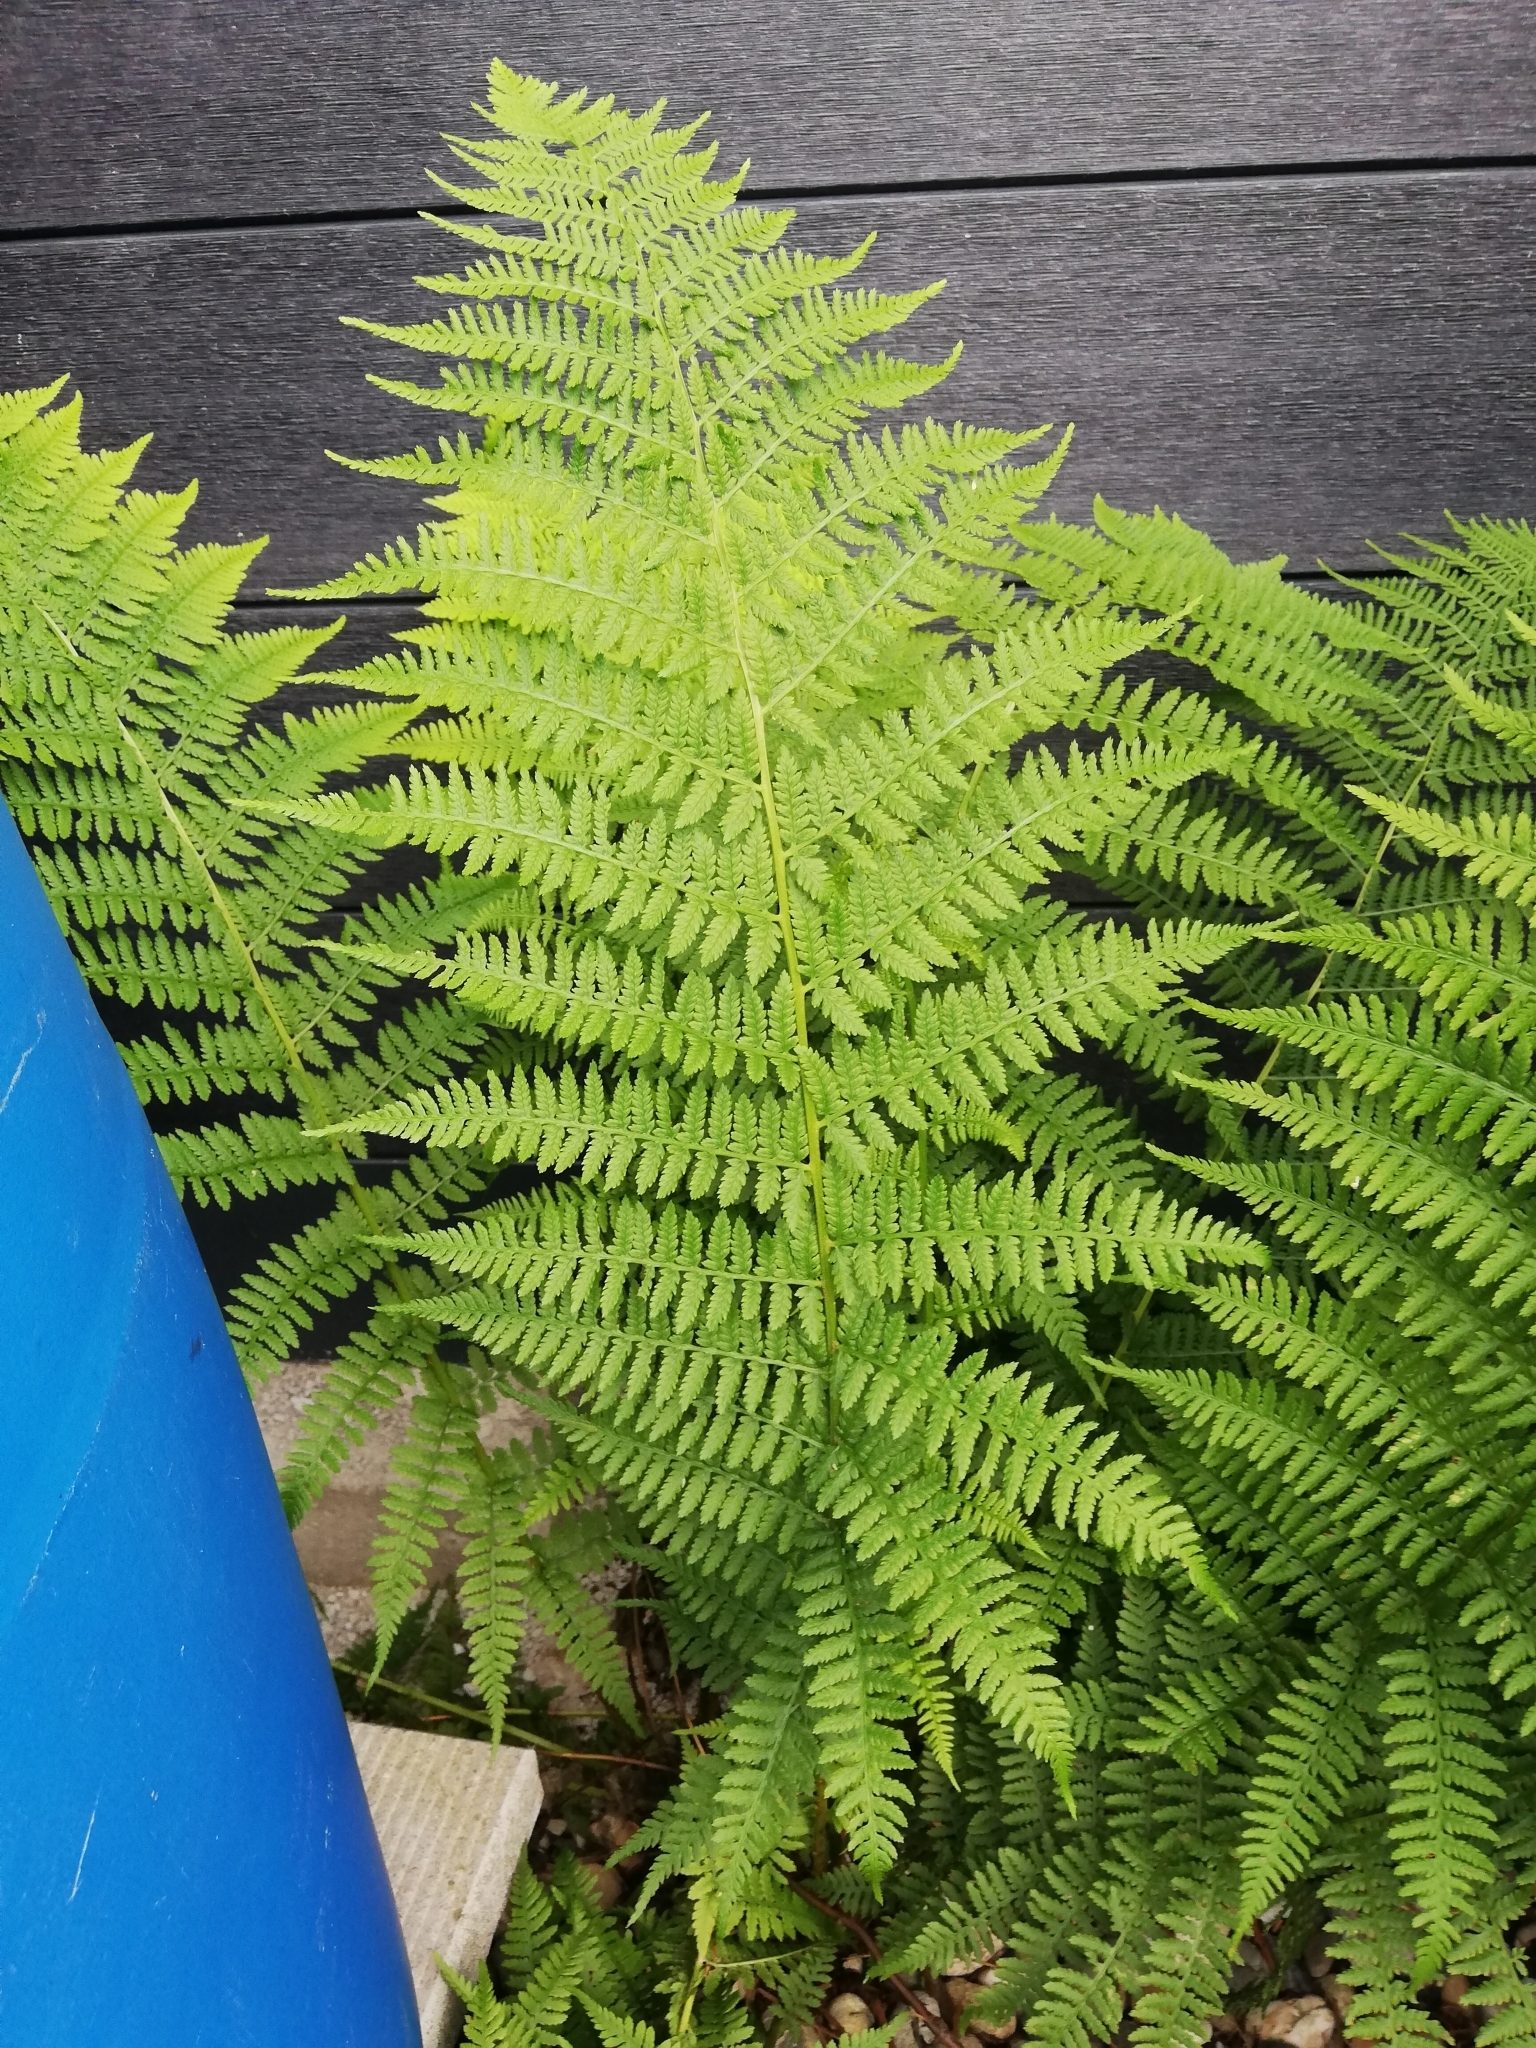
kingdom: Plantae
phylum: Tracheophyta
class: Polypodiopsida
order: Polypodiales
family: Athyriaceae
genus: Athyrium
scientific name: Athyrium filix-femina
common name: Lady fern
